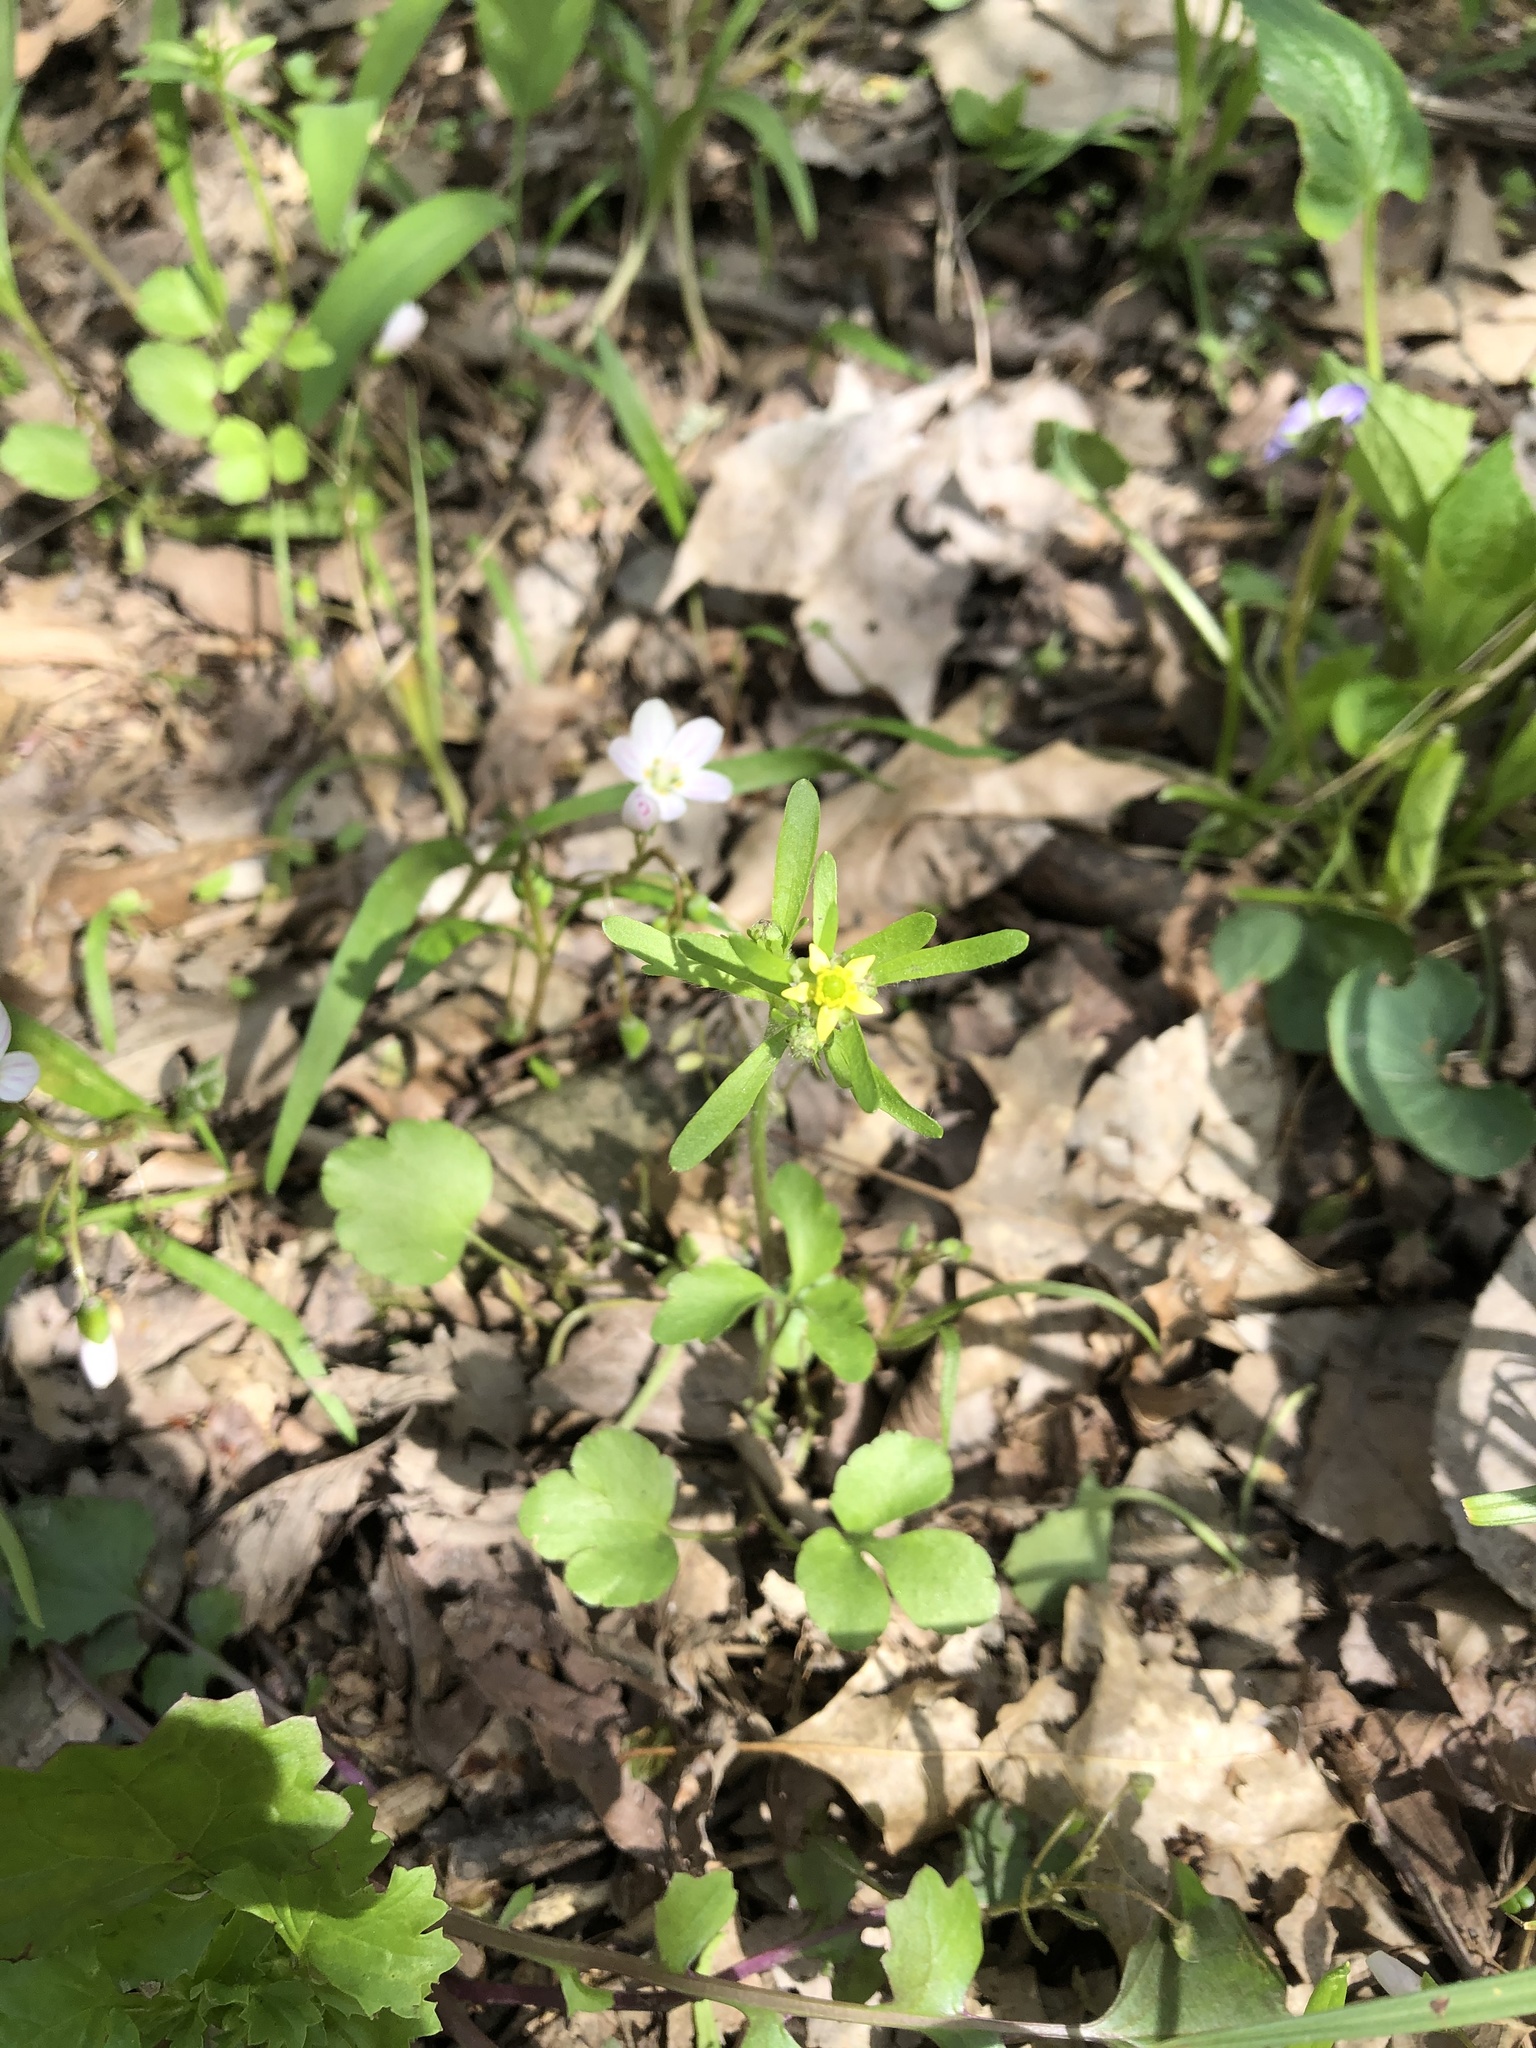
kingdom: Plantae
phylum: Tracheophyta
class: Magnoliopsida
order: Ranunculales
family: Ranunculaceae
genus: Ranunculus
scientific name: Ranunculus micranthus
